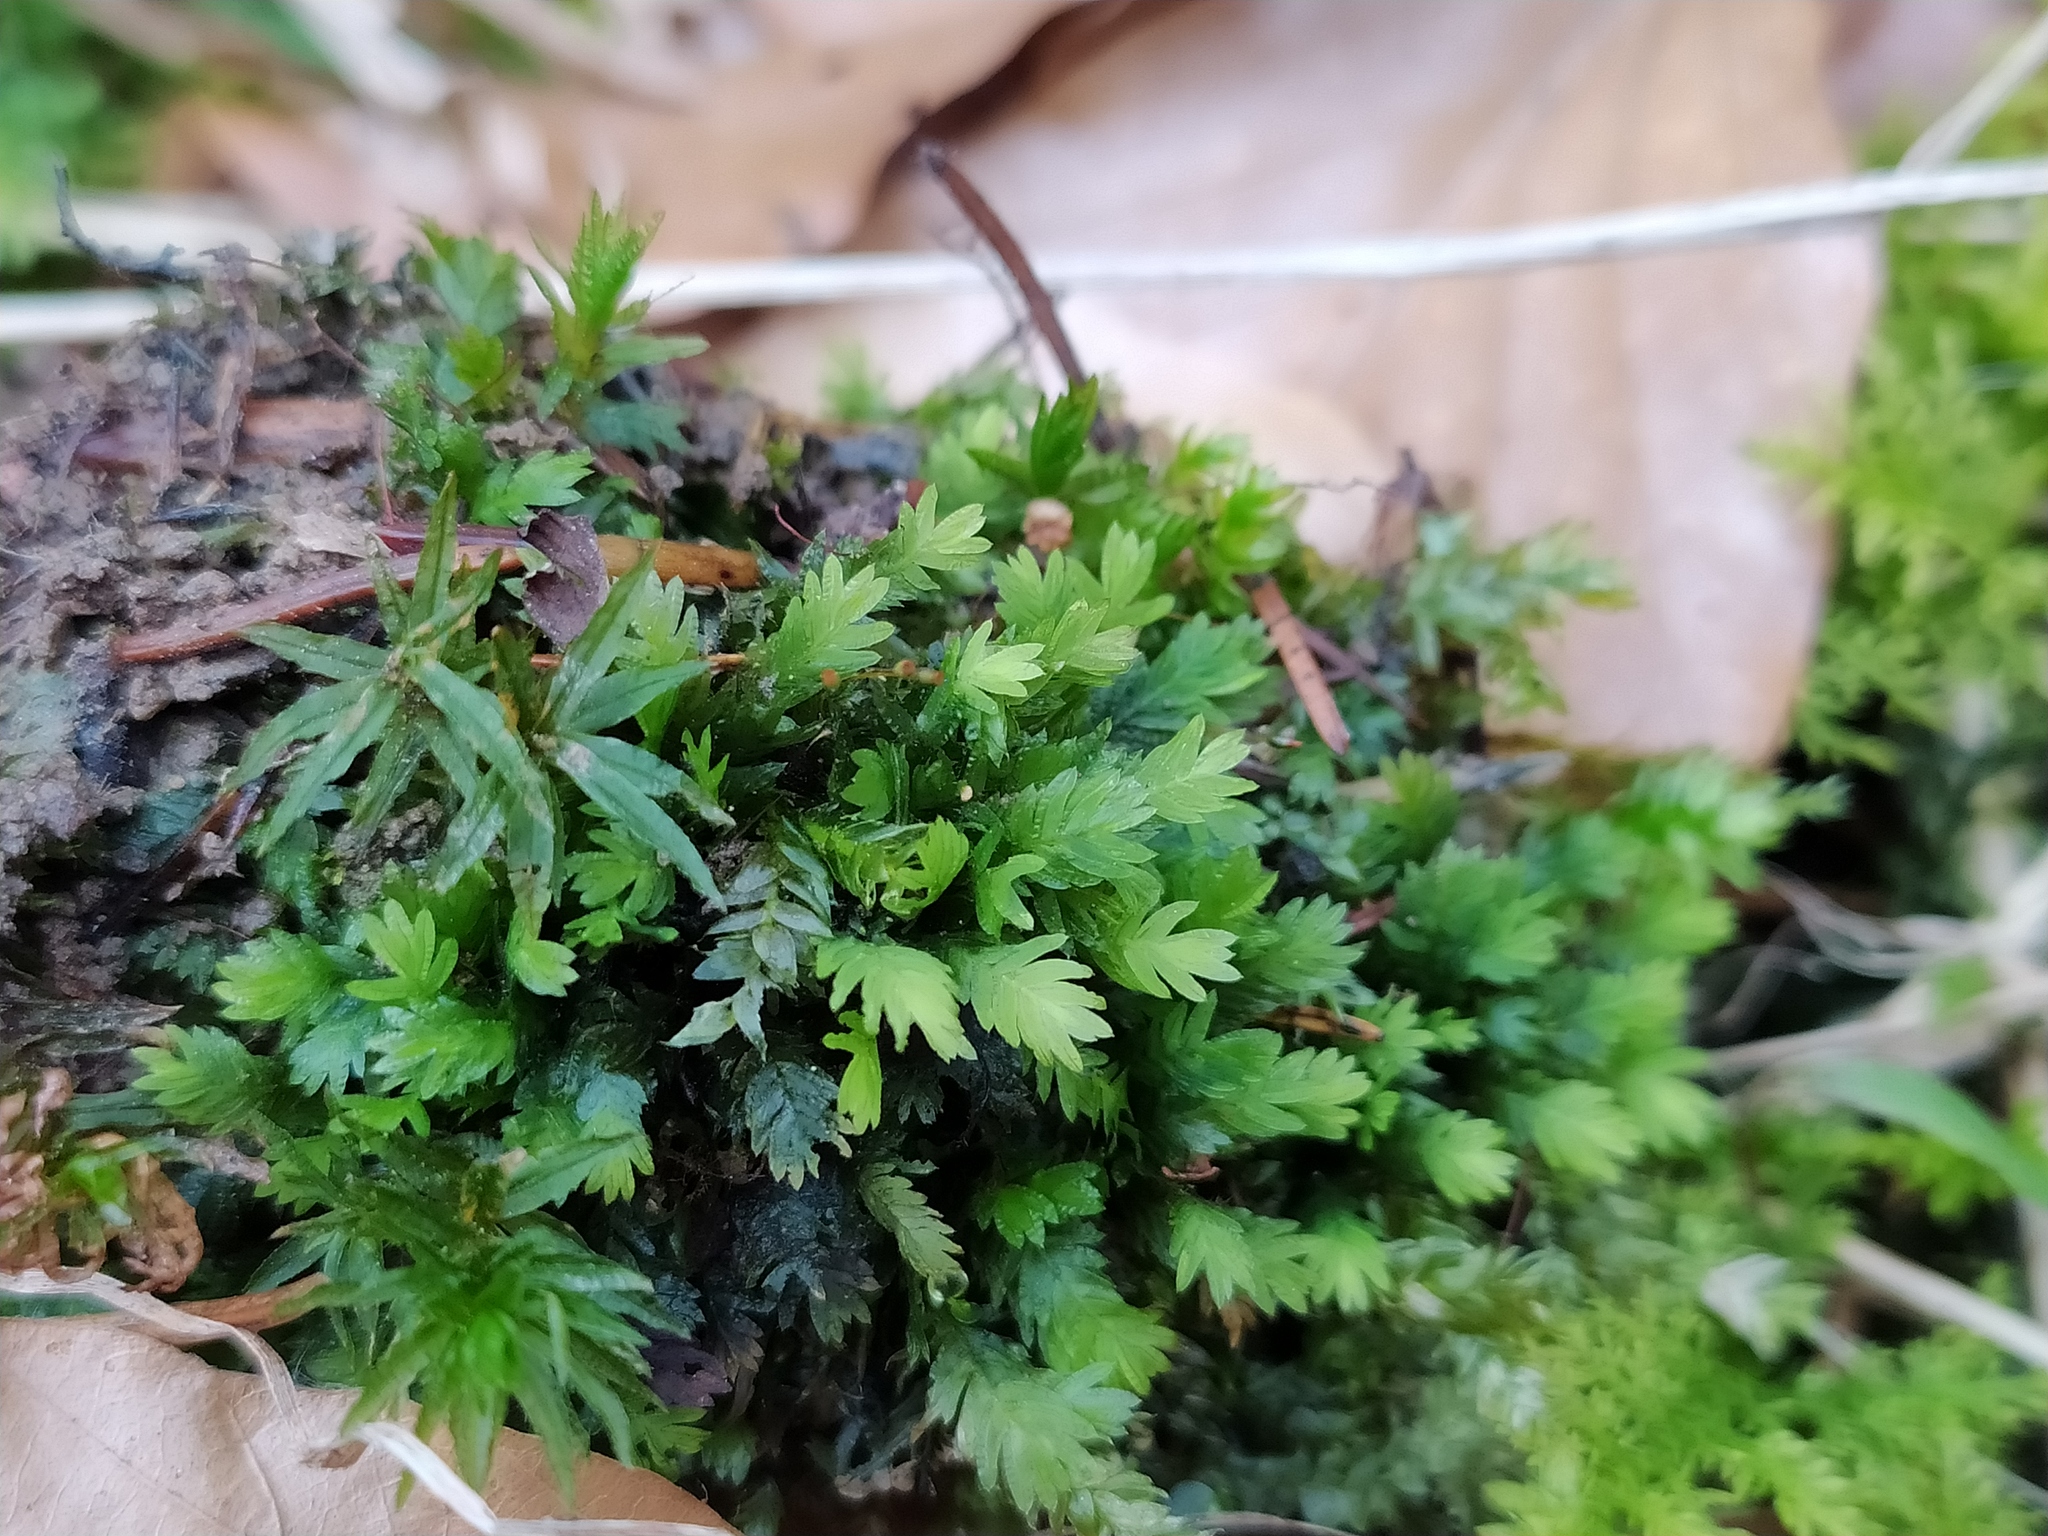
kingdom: Plantae
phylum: Bryophyta
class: Bryopsida
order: Dicranales
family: Fissidentaceae
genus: Fissidens
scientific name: Fissidens taxifolius
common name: Yew-leaved pocket moss
